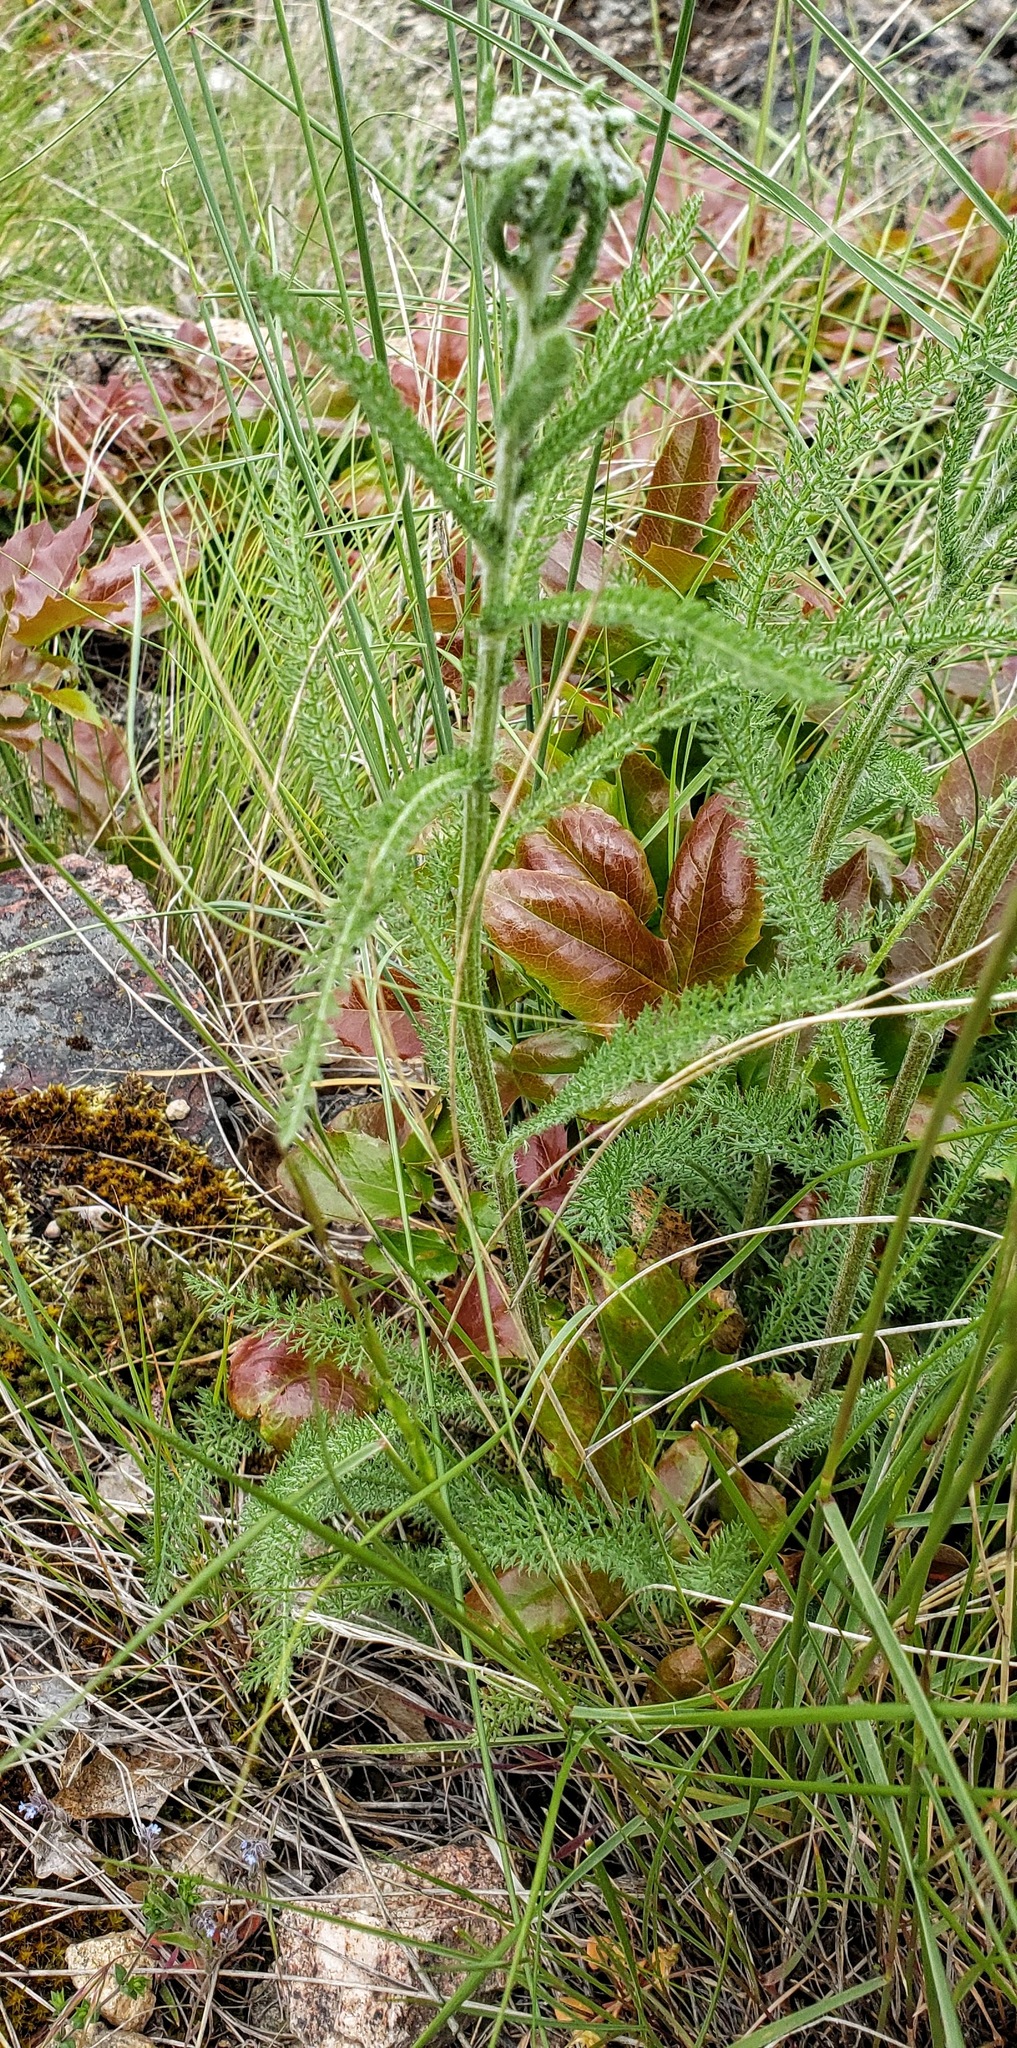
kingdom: Plantae
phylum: Tracheophyta
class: Magnoliopsida
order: Asterales
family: Asteraceae
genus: Achillea
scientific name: Achillea millefolium
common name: Yarrow
